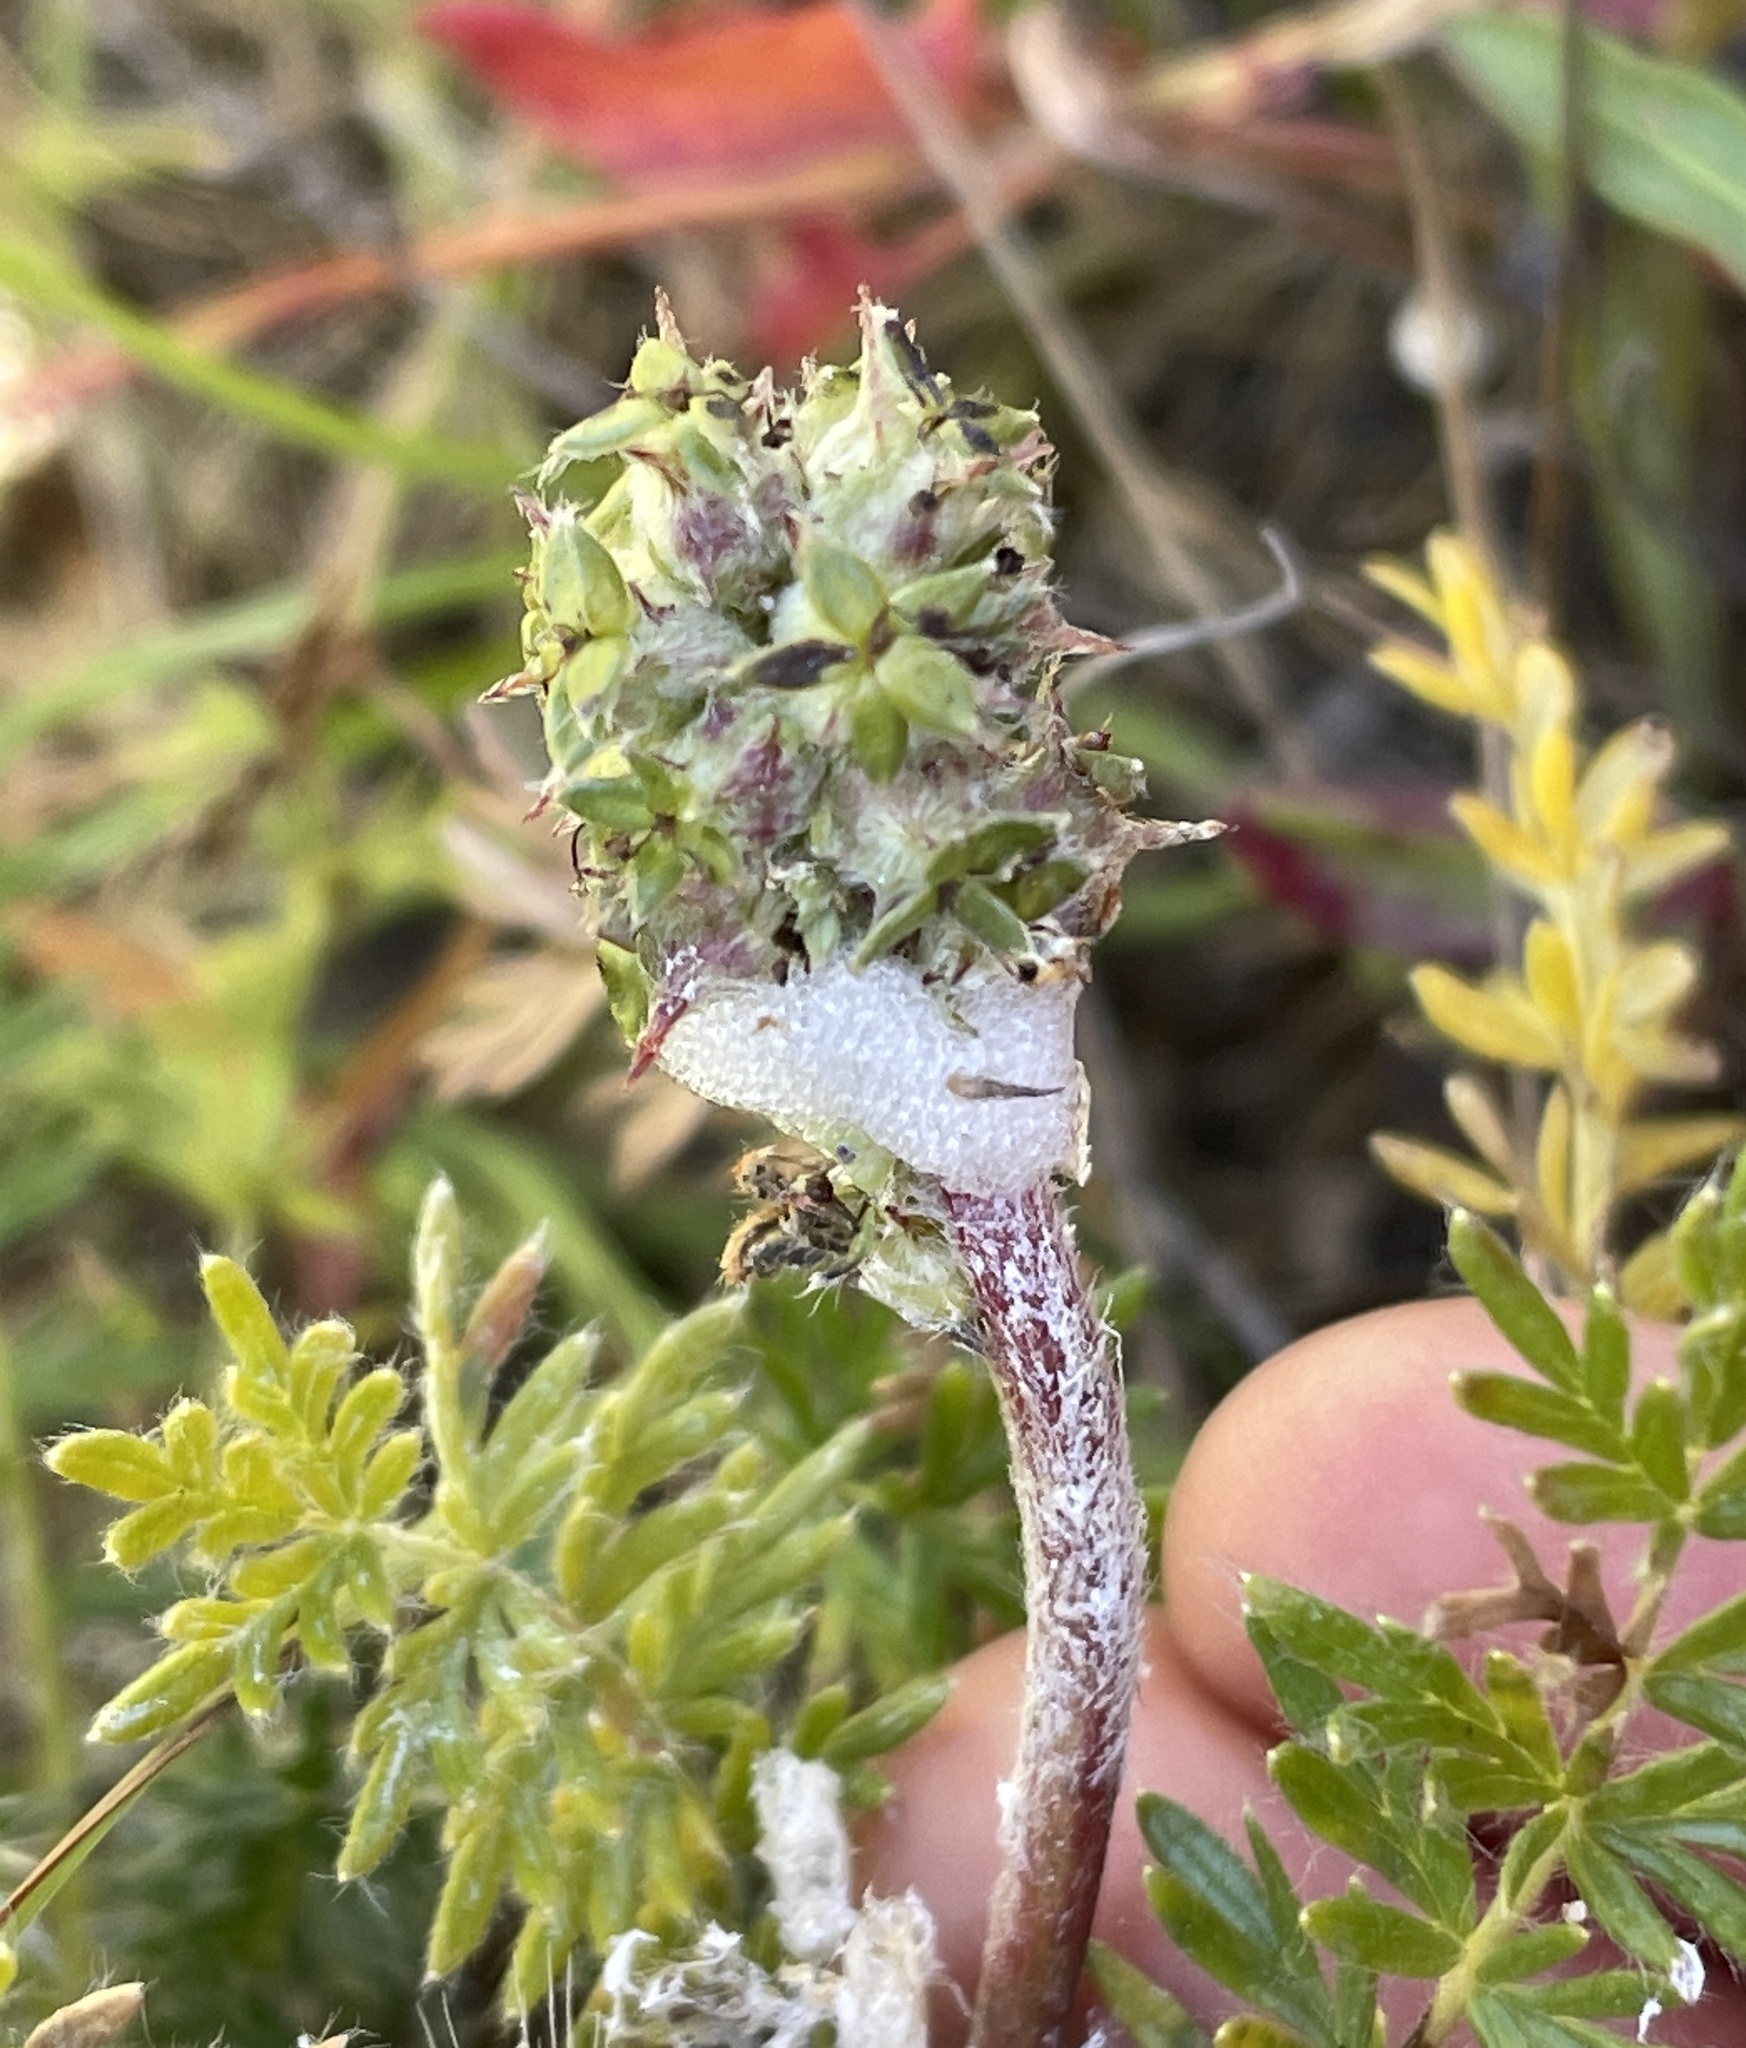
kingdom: Animalia
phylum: Arthropoda
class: Insecta
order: Hemiptera
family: Aphrophoridae
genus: Philaenus
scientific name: Philaenus spumarius
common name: Meadow spittlebug
